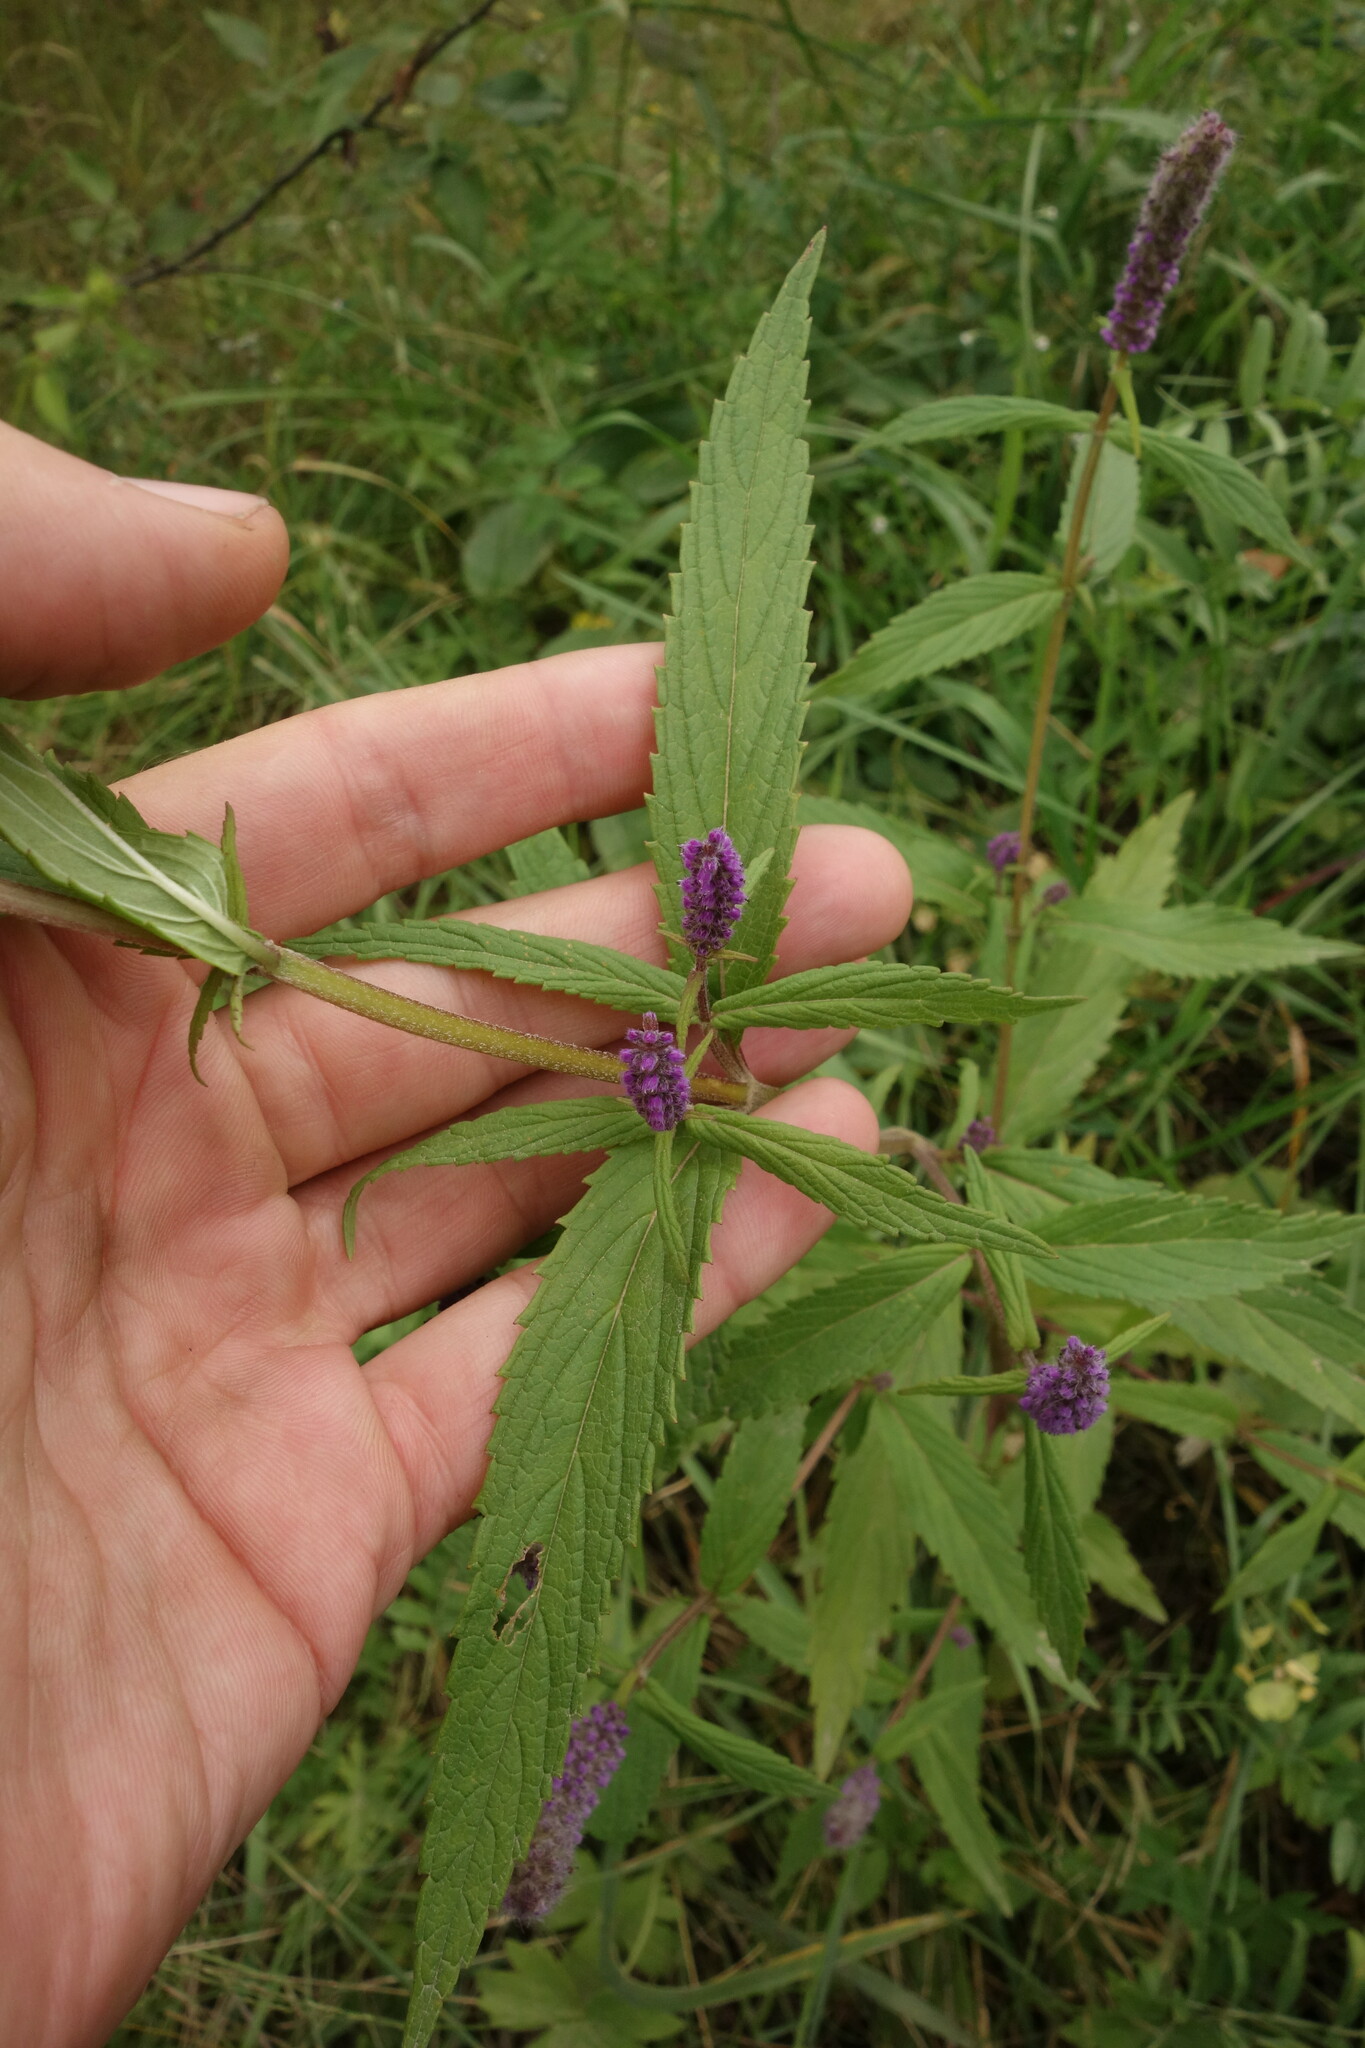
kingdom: Plantae
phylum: Tracheophyta
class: Magnoliopsida
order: Lamiales
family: Lamiaceae
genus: Elsholtzia
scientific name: Elsholtzia densa
